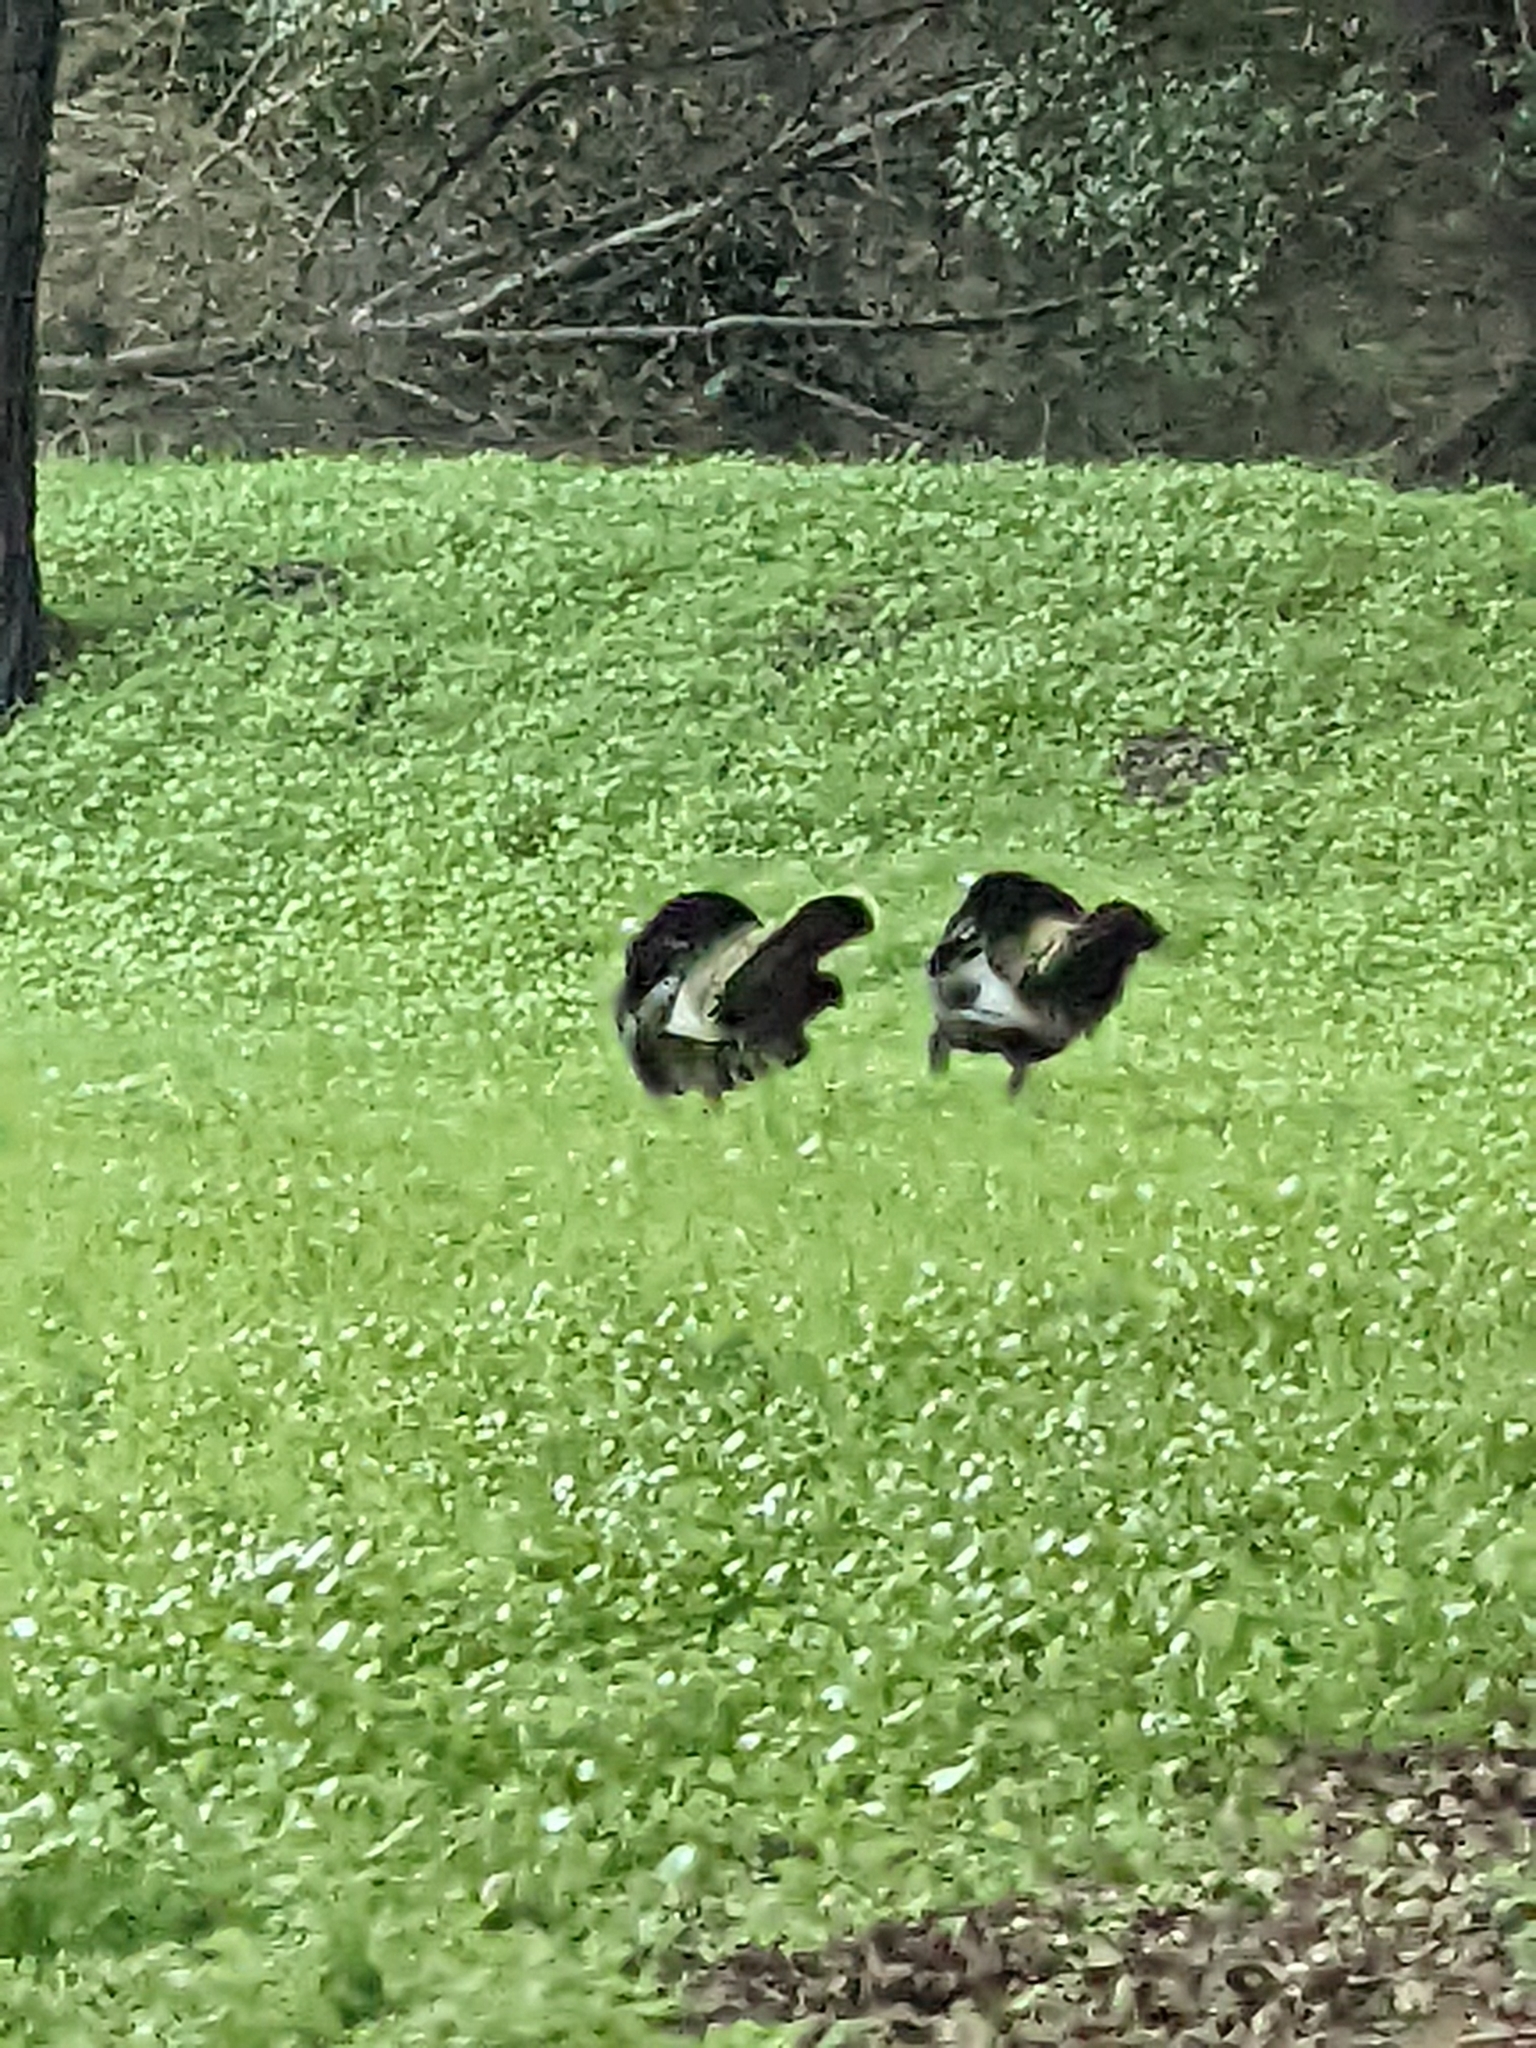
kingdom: Animalia
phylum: Chordata
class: Aves
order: Galliformes
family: Phasianidae
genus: Meleagris
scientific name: Meleagris gallopavo
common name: Wild turkey
